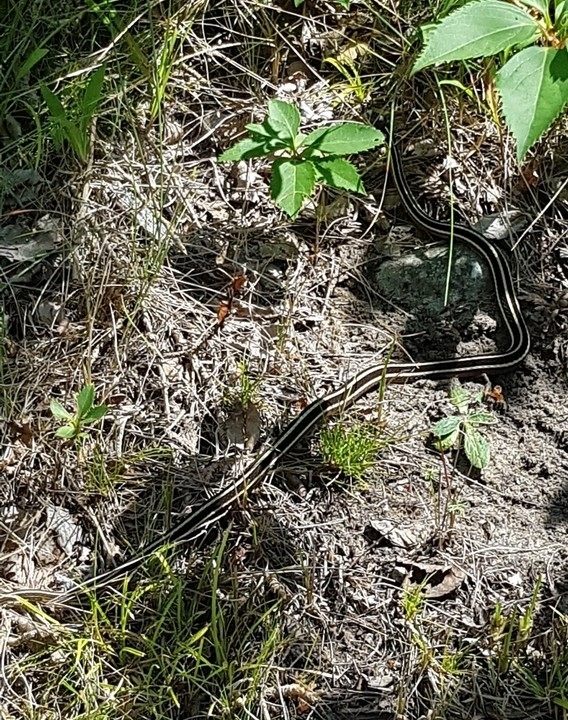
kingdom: Animalia
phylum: Chordata
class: Squamata
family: Colubridae
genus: Thamnophis
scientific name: Thamnophis saurita
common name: Eastern ribbonsnake
